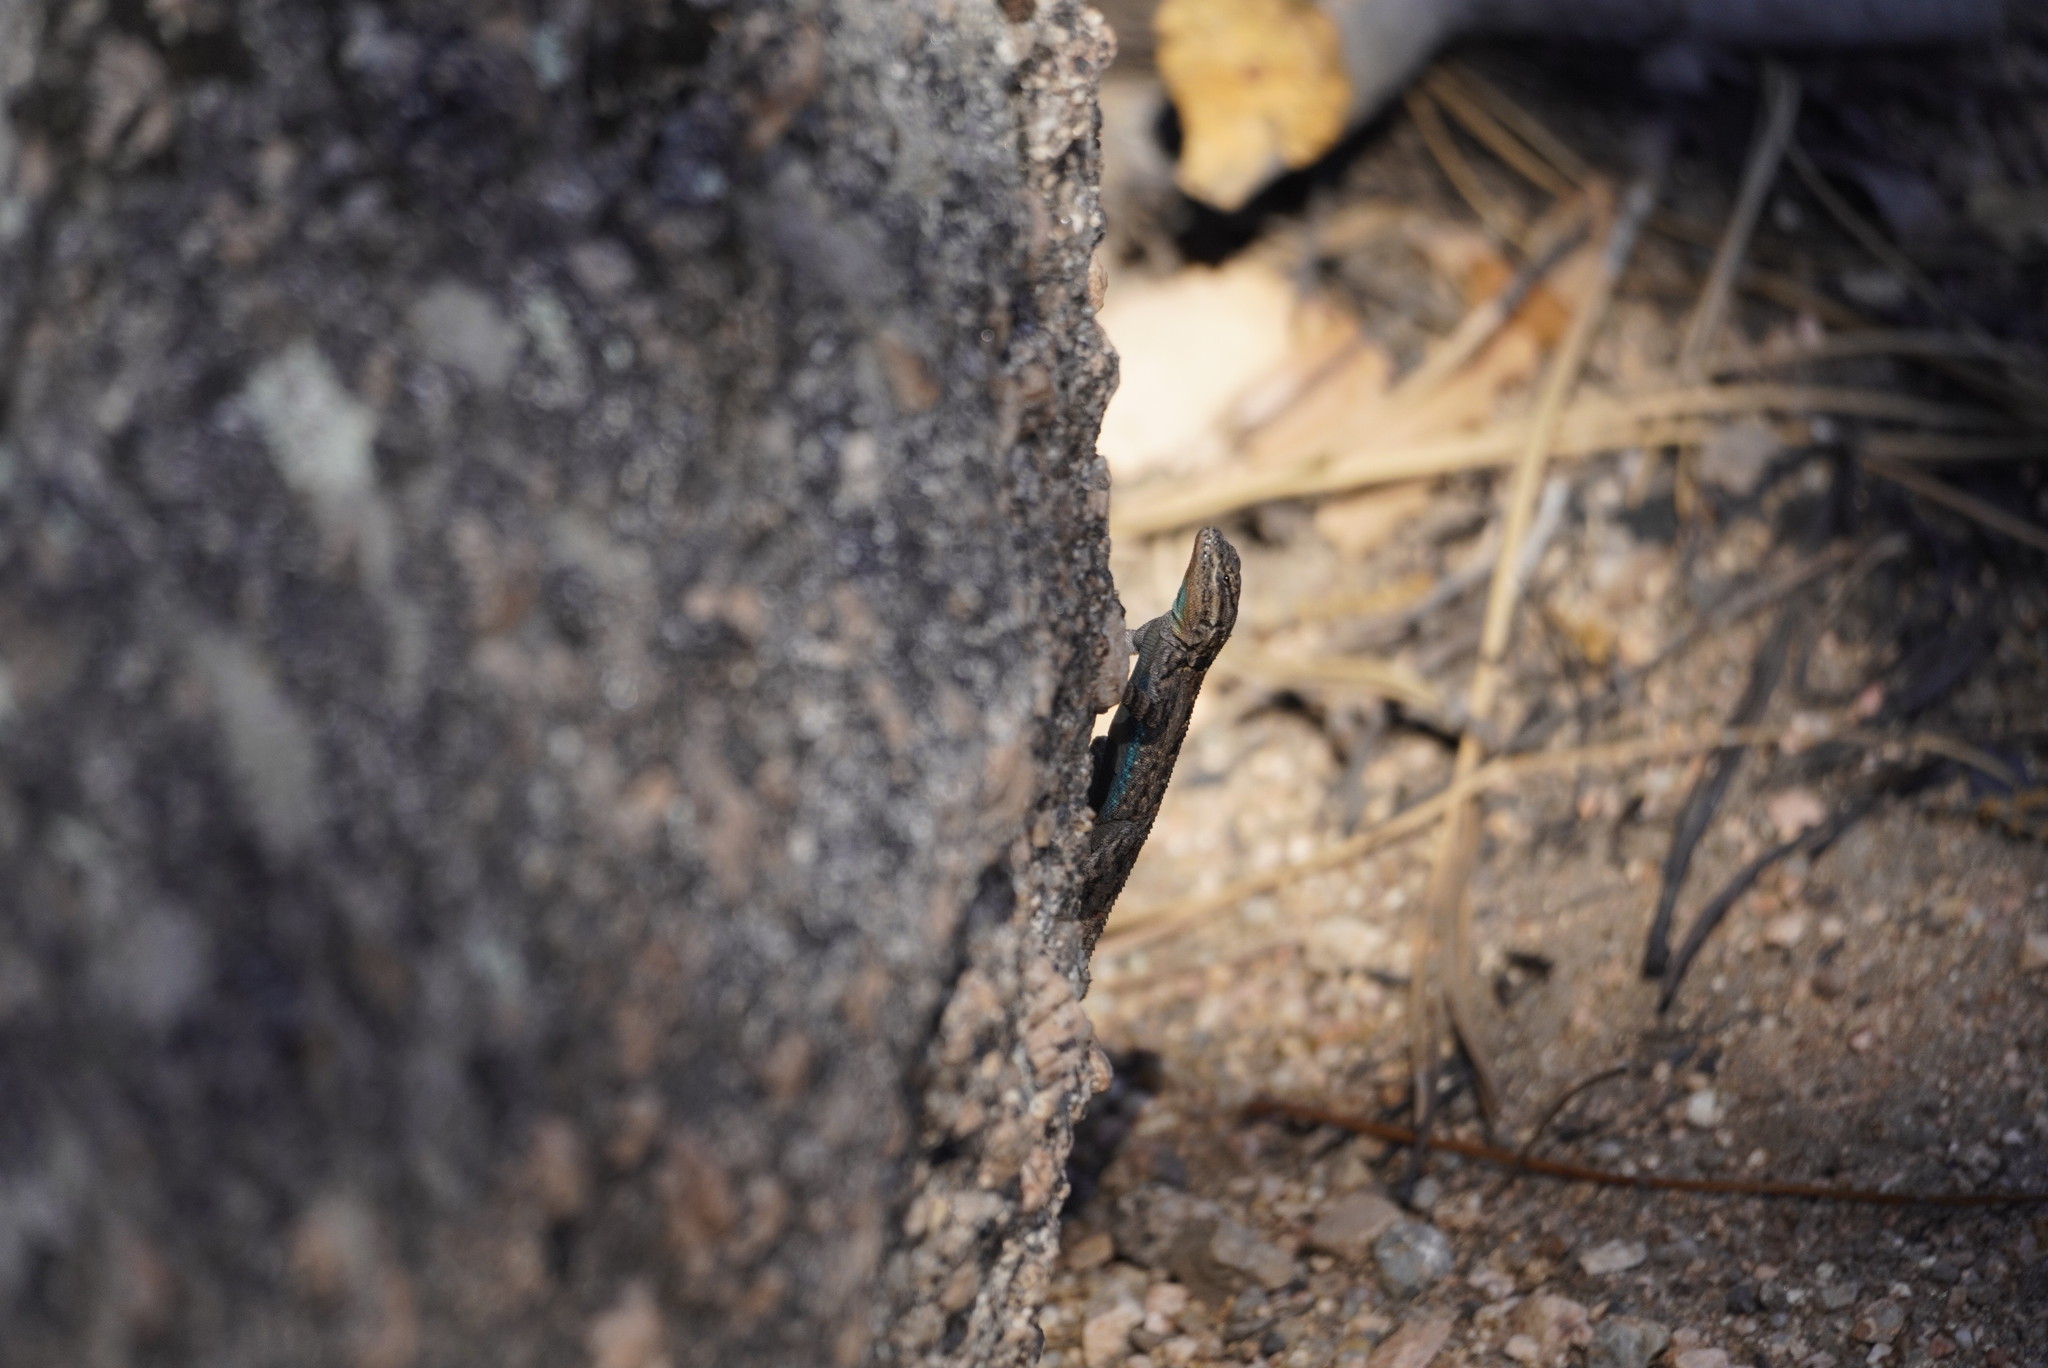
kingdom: Animalia
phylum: Chordata
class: Squamata
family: Phrynosomatidae
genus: Urosaurus
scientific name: Urosaurus ornatus
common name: Ornate tree lizard
